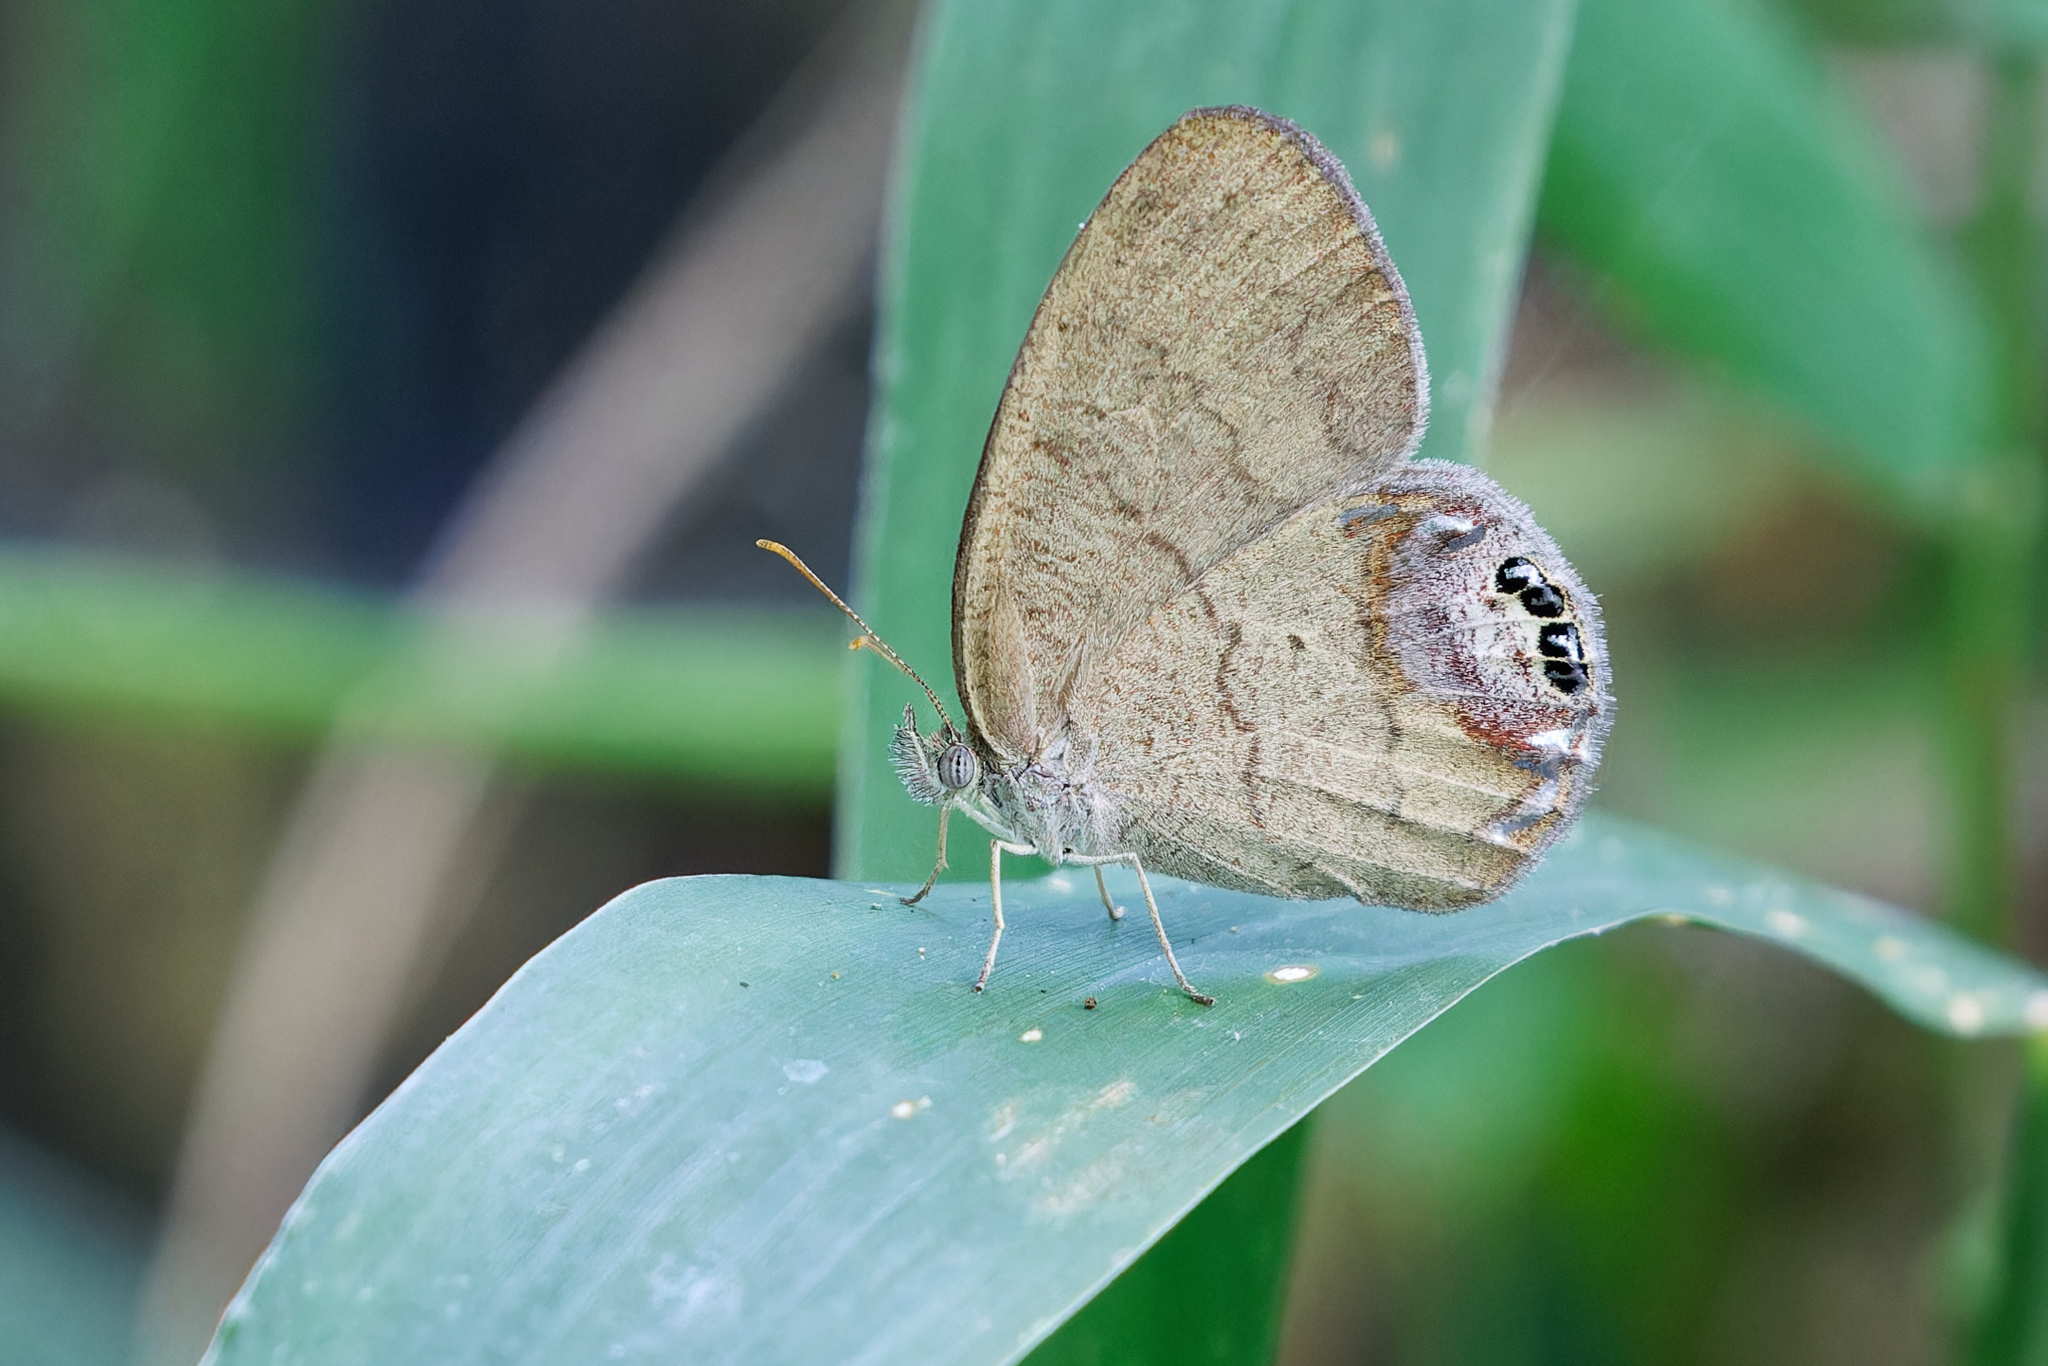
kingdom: Animalia
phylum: Arthropoda
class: Insecta
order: Lepidoptera
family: Nymphalidae
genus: Euptychia
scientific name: Euptychia cornelius
